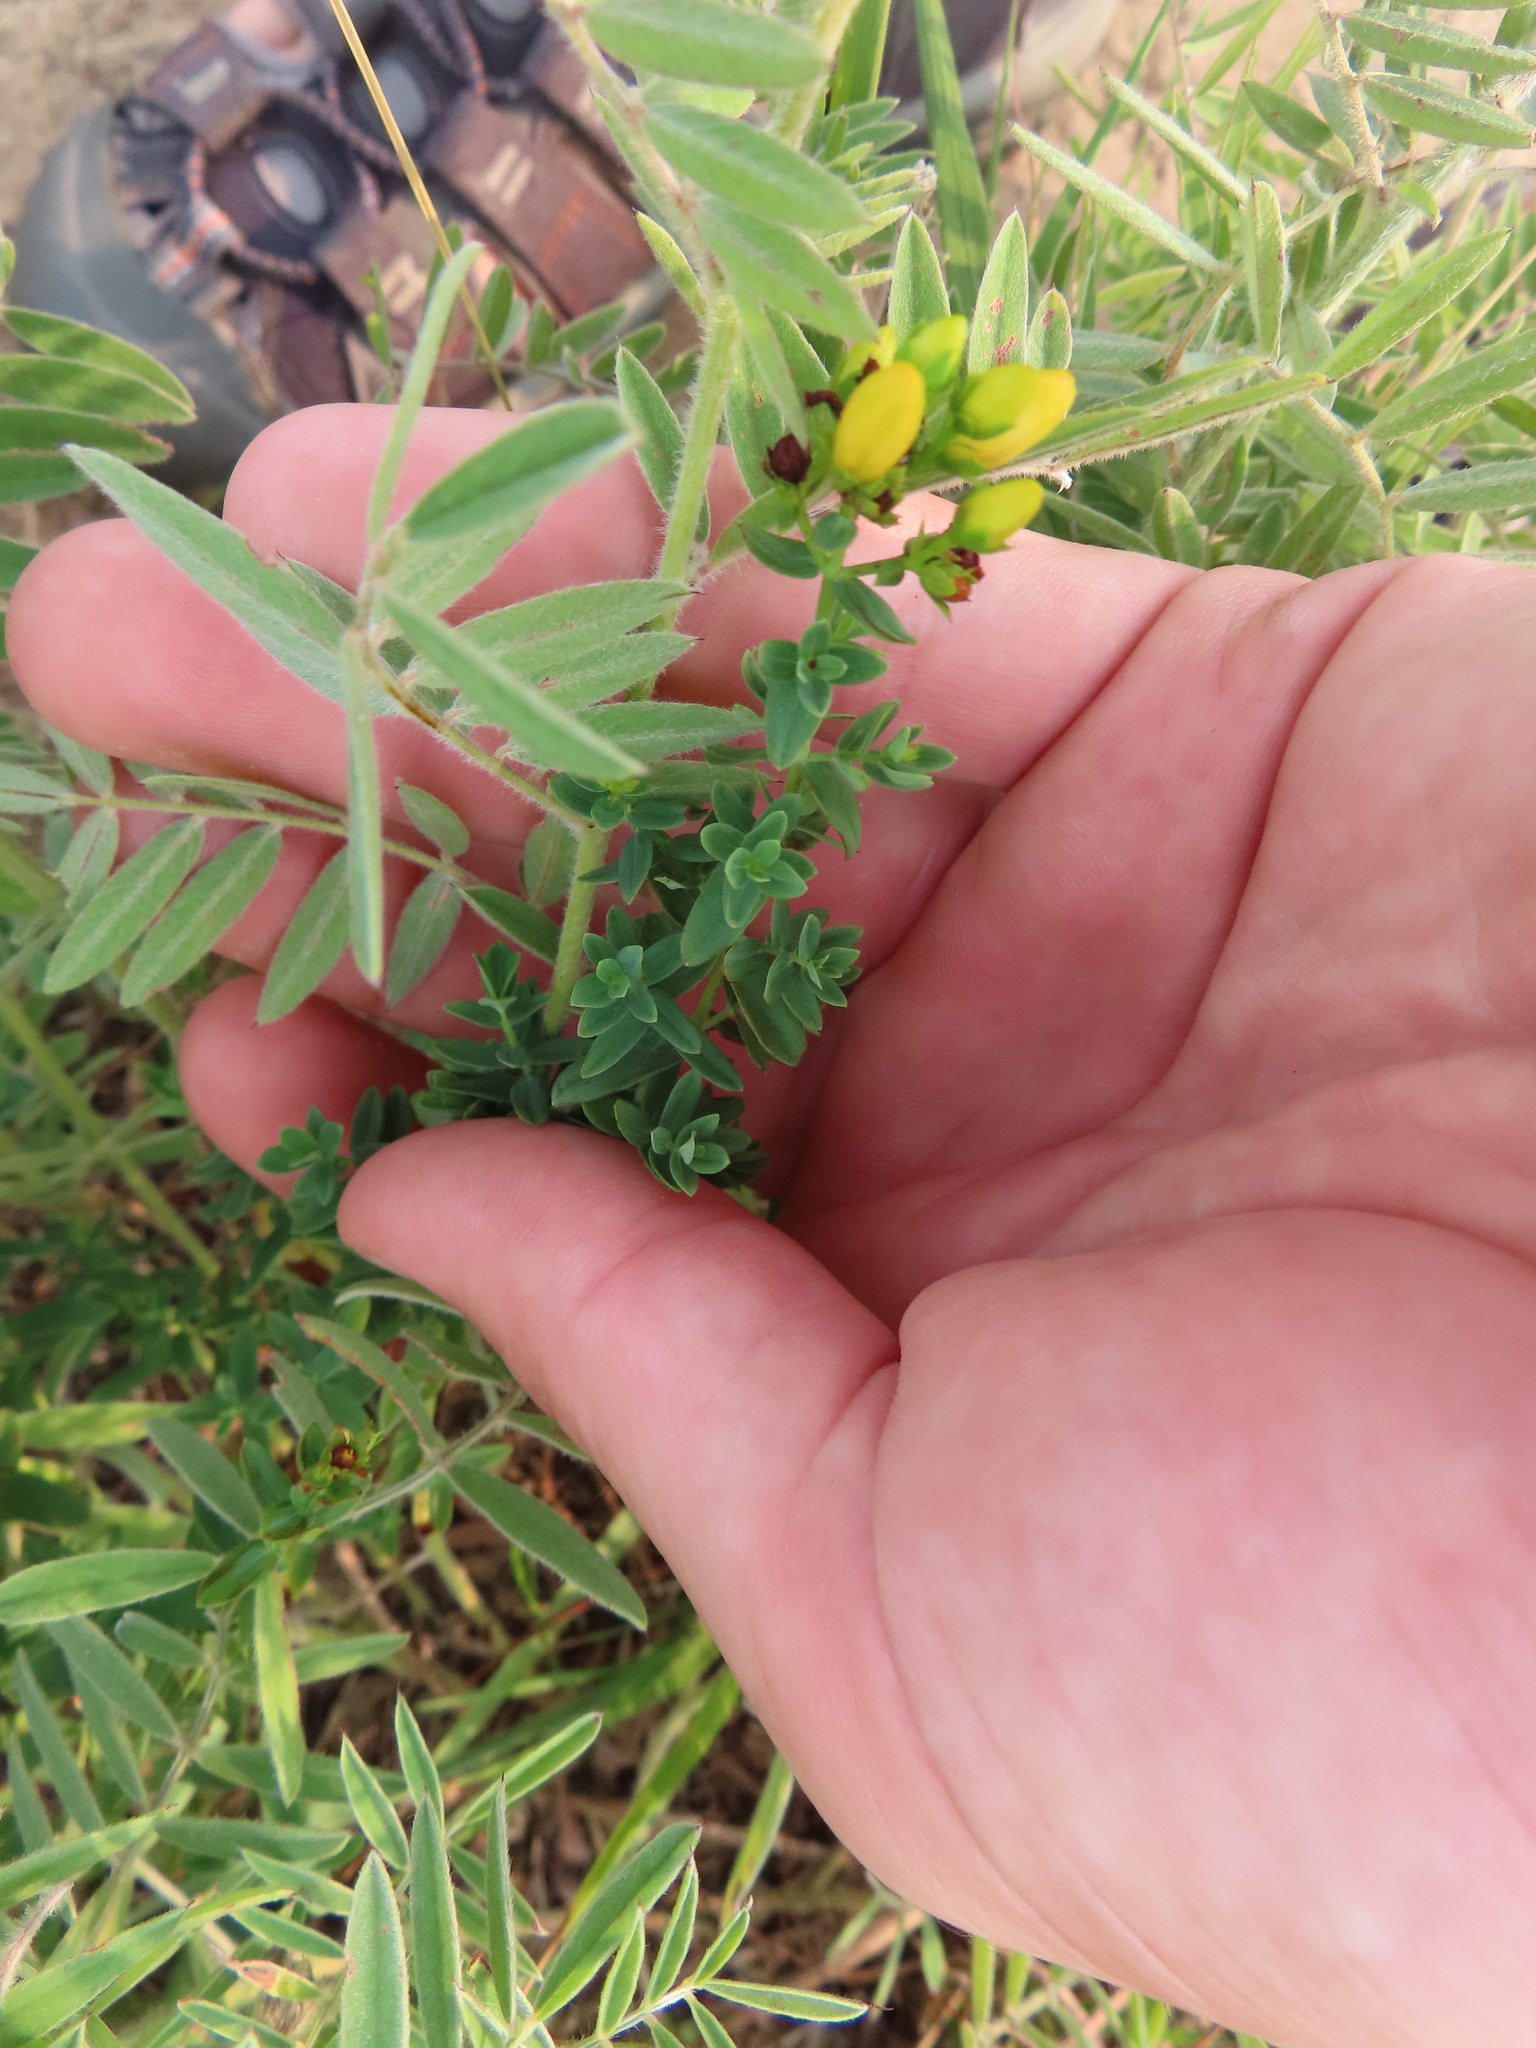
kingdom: Plantae
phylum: Tracheophyta
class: Magnoliopsida
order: Malpighiales
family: Hypericaceae
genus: Hypericum
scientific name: Hypericum perforatum
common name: Common st. johnswort
